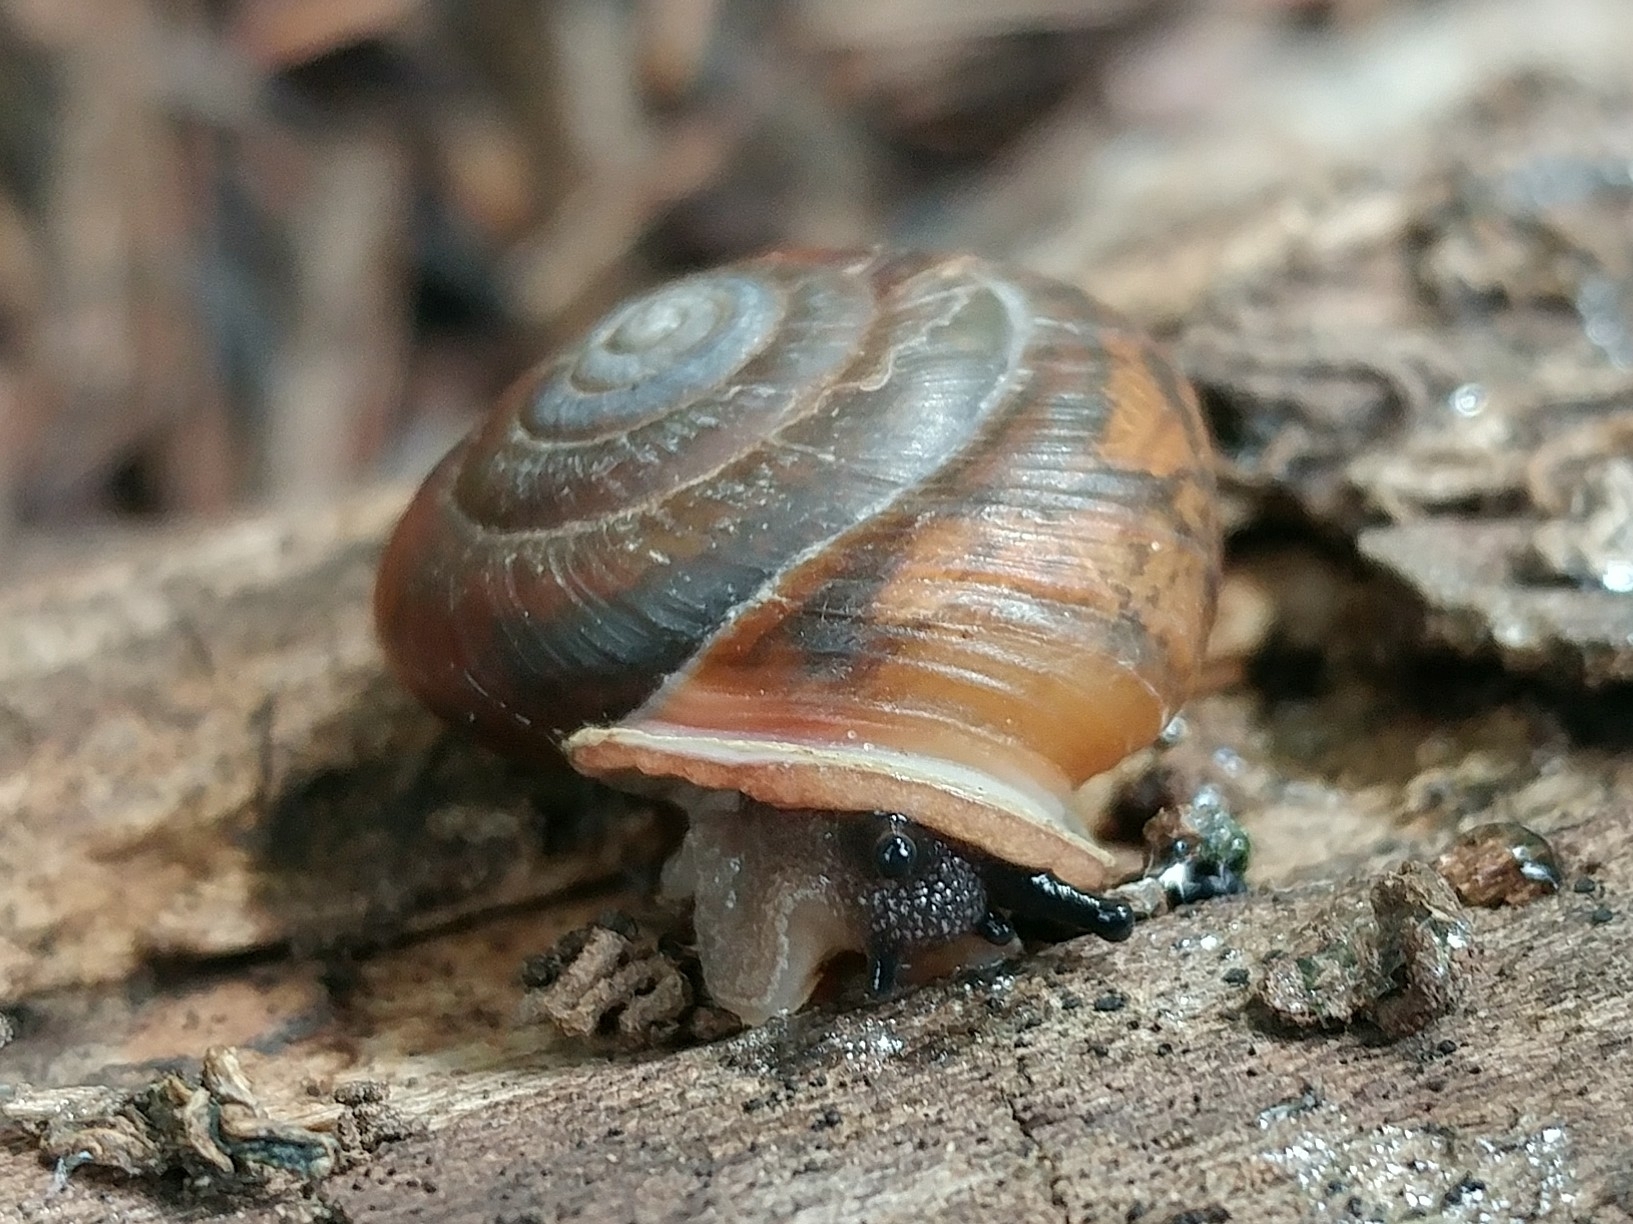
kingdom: Animalia
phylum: Mollusca
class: Gastropoda
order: Stylommatophora
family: Polygyridae
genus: Ashmunella
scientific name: Ashmunella rhyssa
